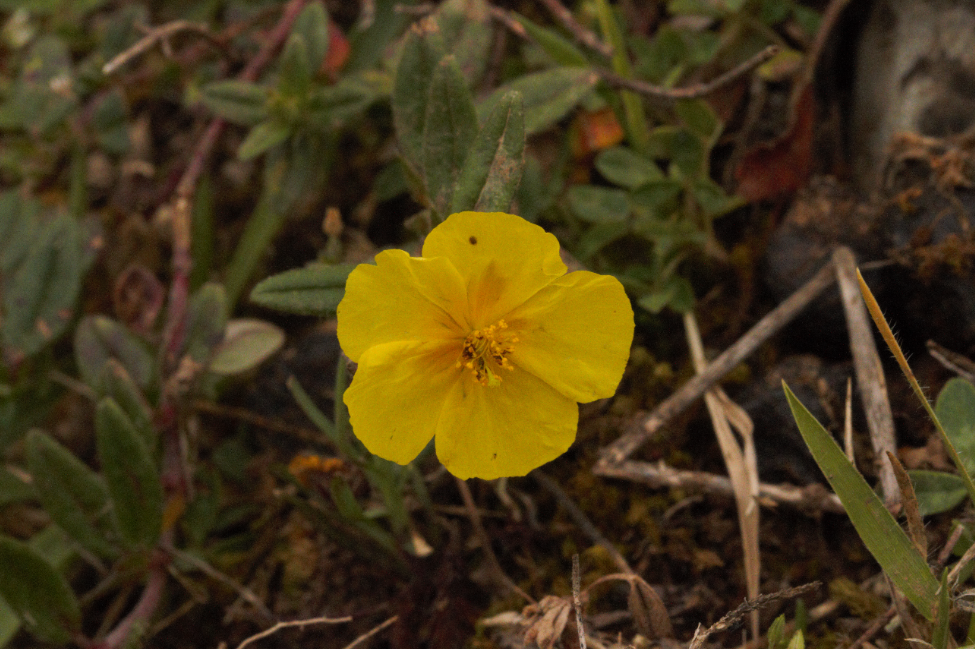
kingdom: Plantae
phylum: Tracheophyta
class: Magnoliopsida
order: Malvales
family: Cistaceae
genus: Helianthemum
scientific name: Helianthemum nummularium
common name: Common rock-rose
